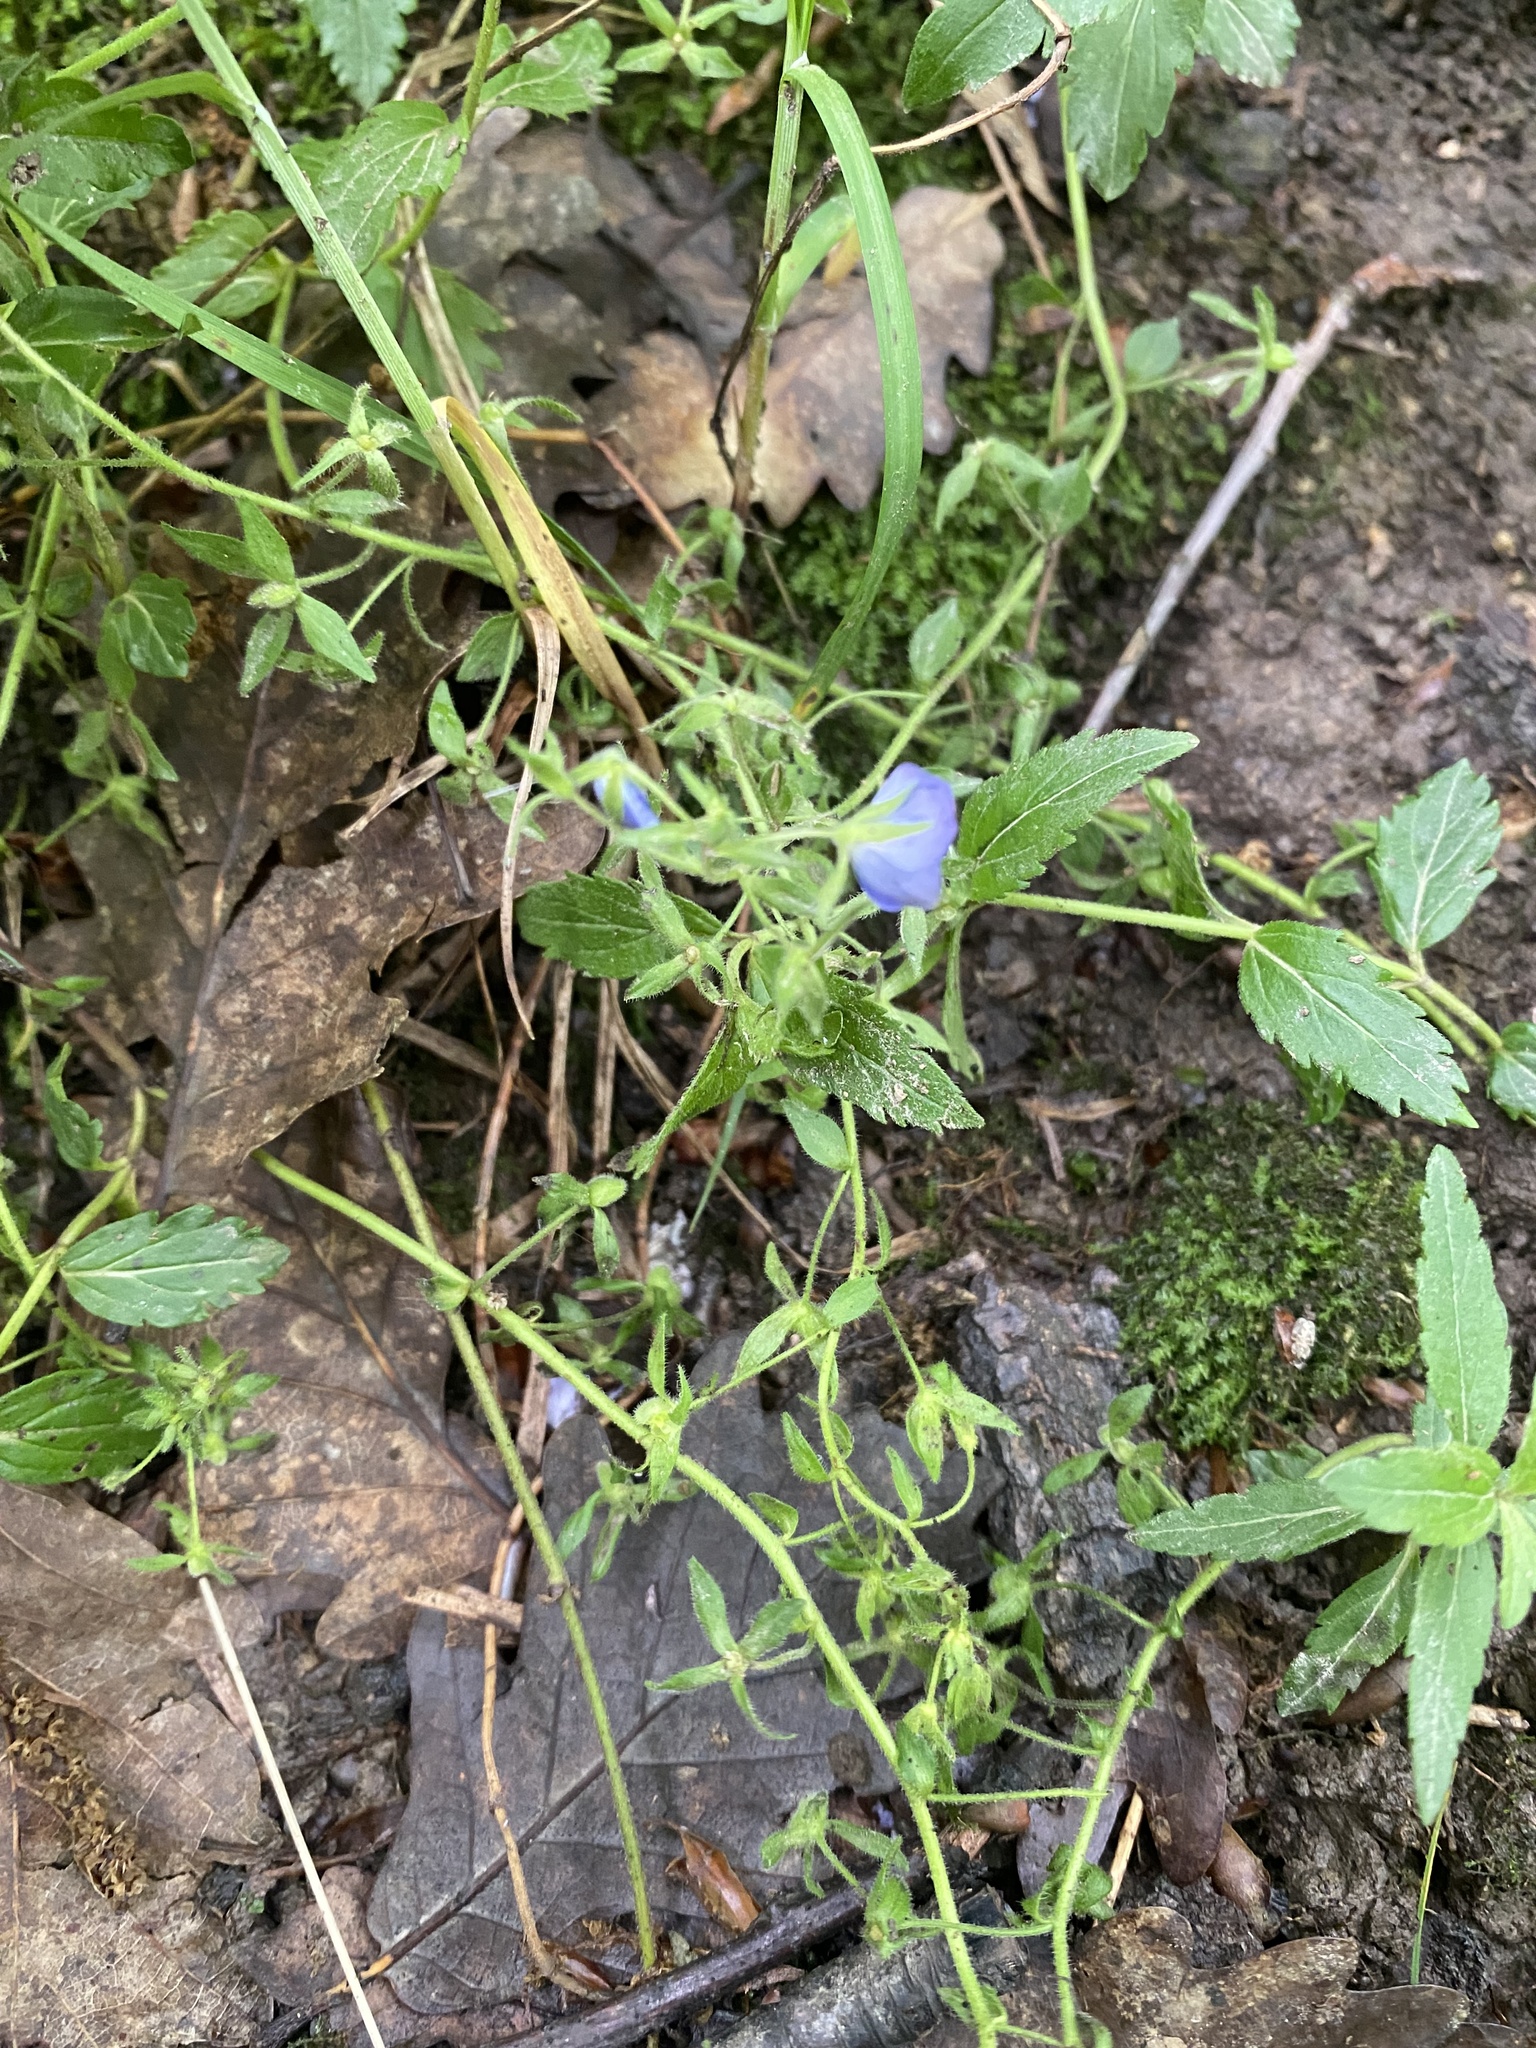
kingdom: Plantae
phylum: Tracheophyta
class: Magnoliopsida
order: Lamiales
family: Plantaginaceae
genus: Veronica
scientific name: Veronica
